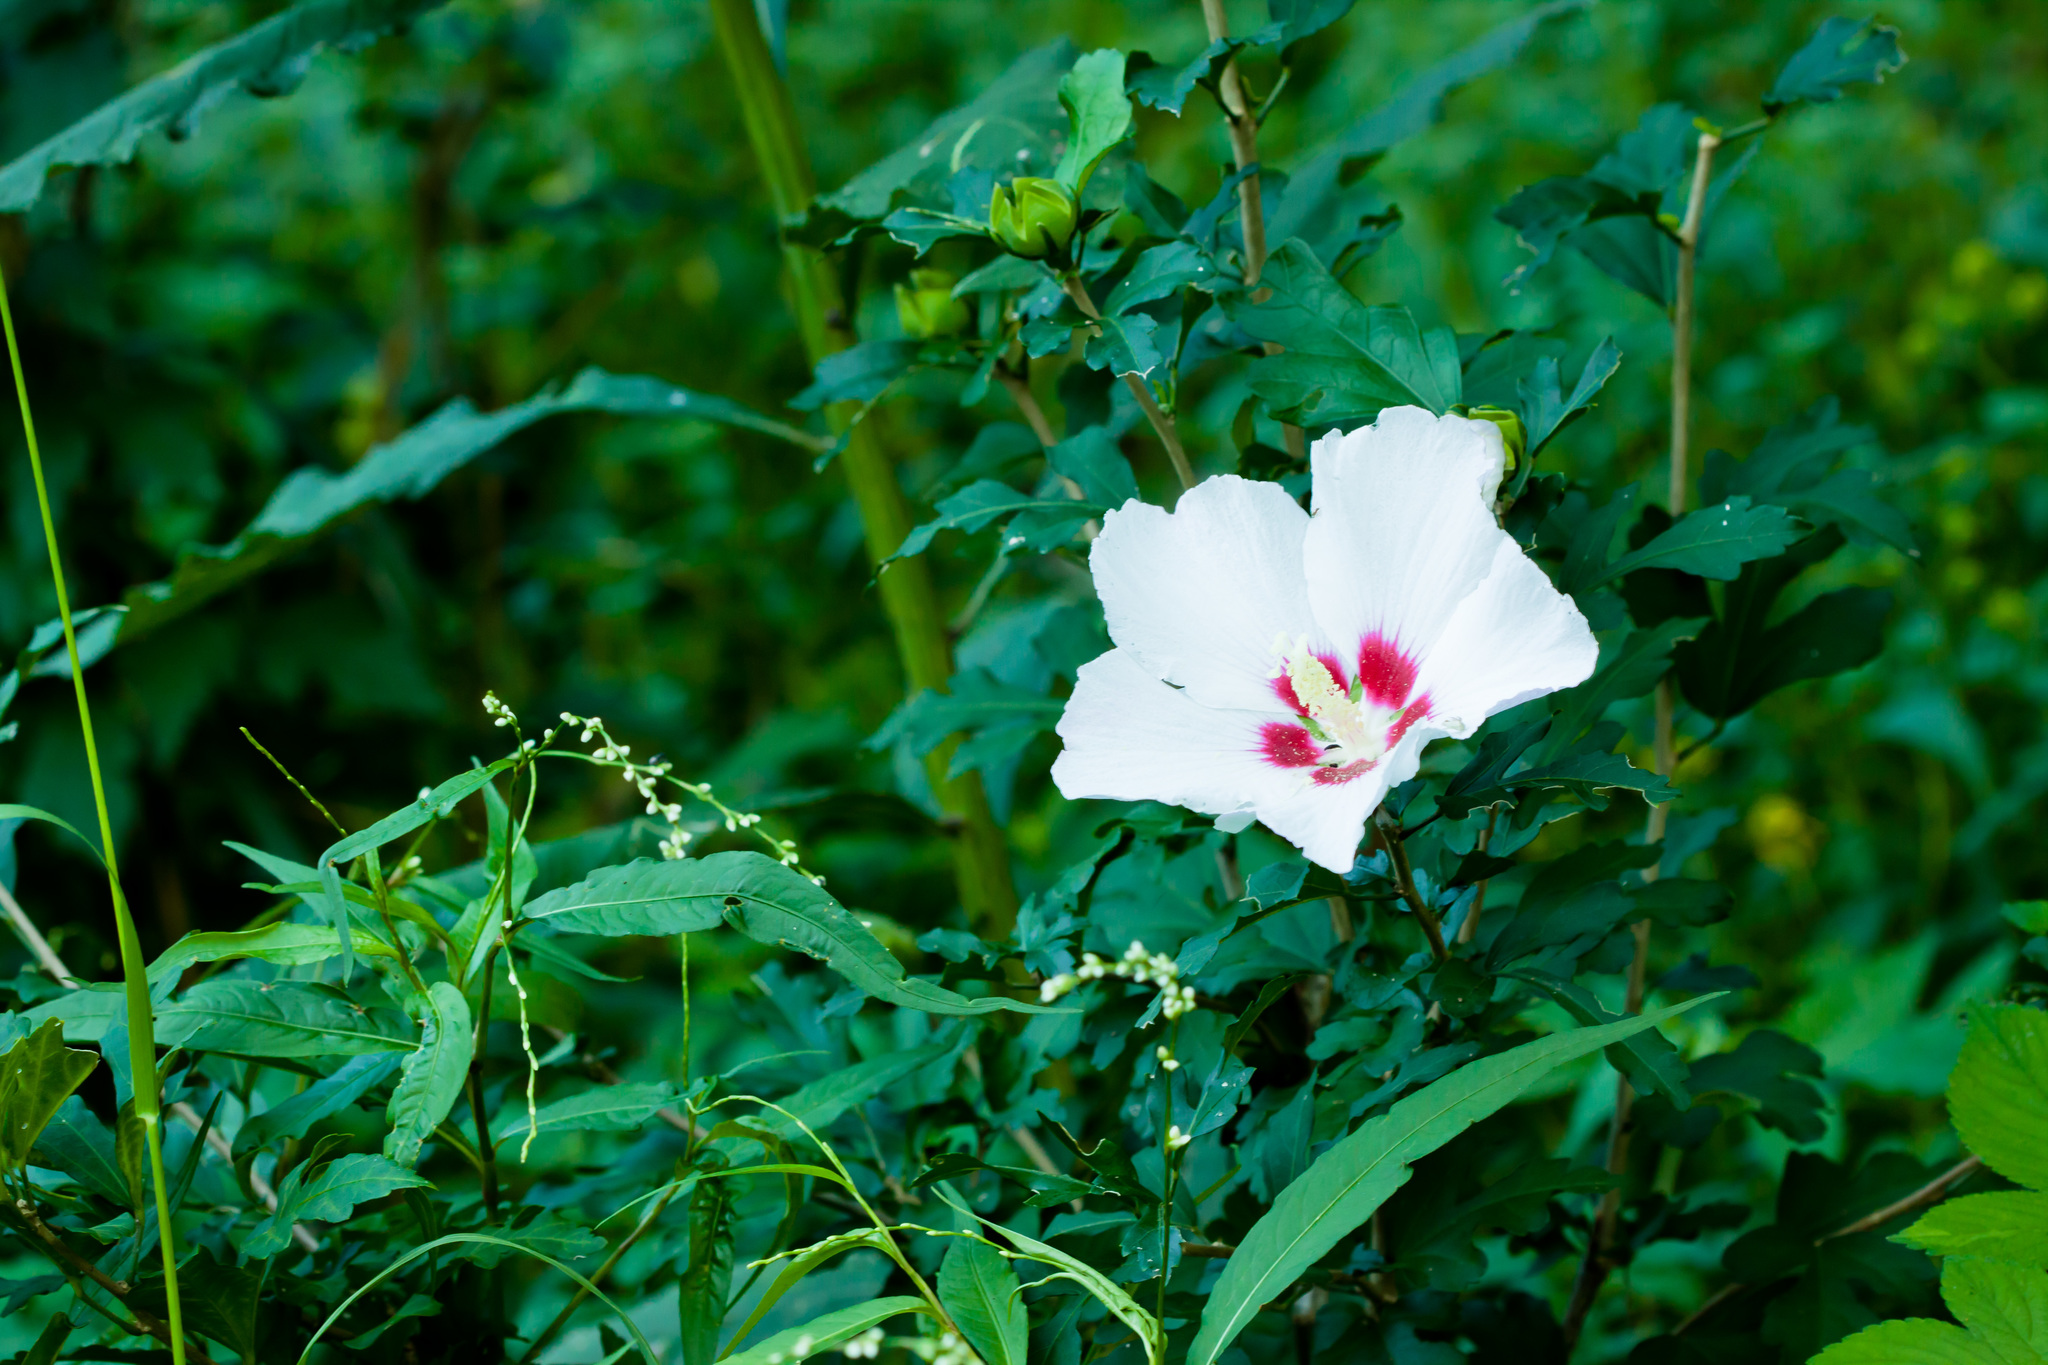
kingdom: Plantae
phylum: Tracheophyta
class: Magnoliopsida
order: Malvales
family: Malvaceae
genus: Hibiscus
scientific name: Hibiscus syriacus
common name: Syrian ketmia
